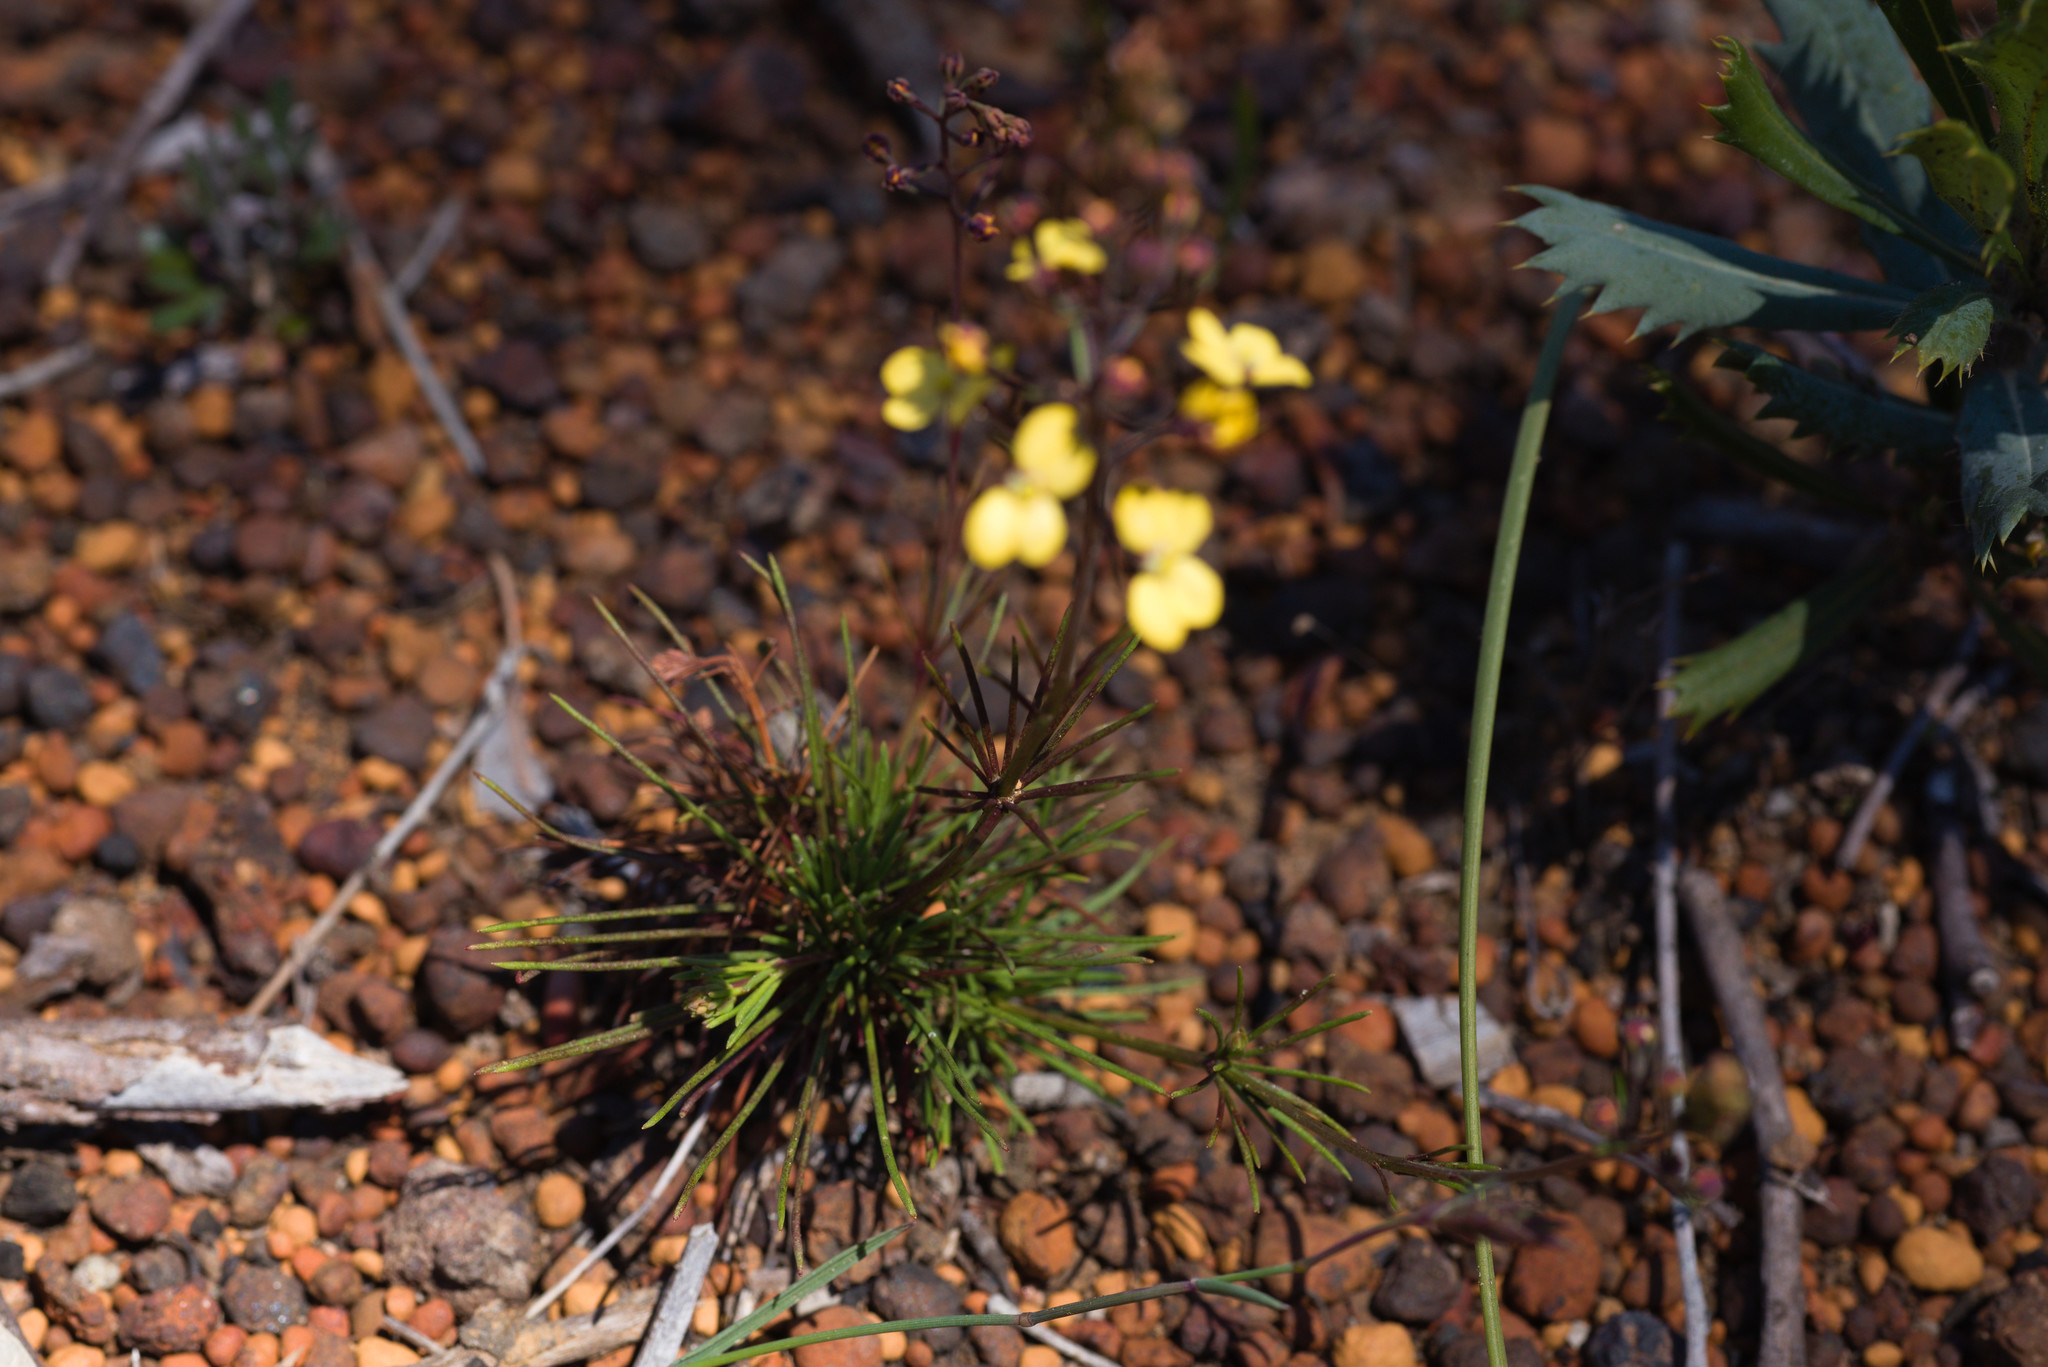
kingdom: Plantae
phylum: Tracheophyta
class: Magnoliopsida
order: Asterales
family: Stylidiaceae
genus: Stylidium
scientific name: Stylidium diuroides
